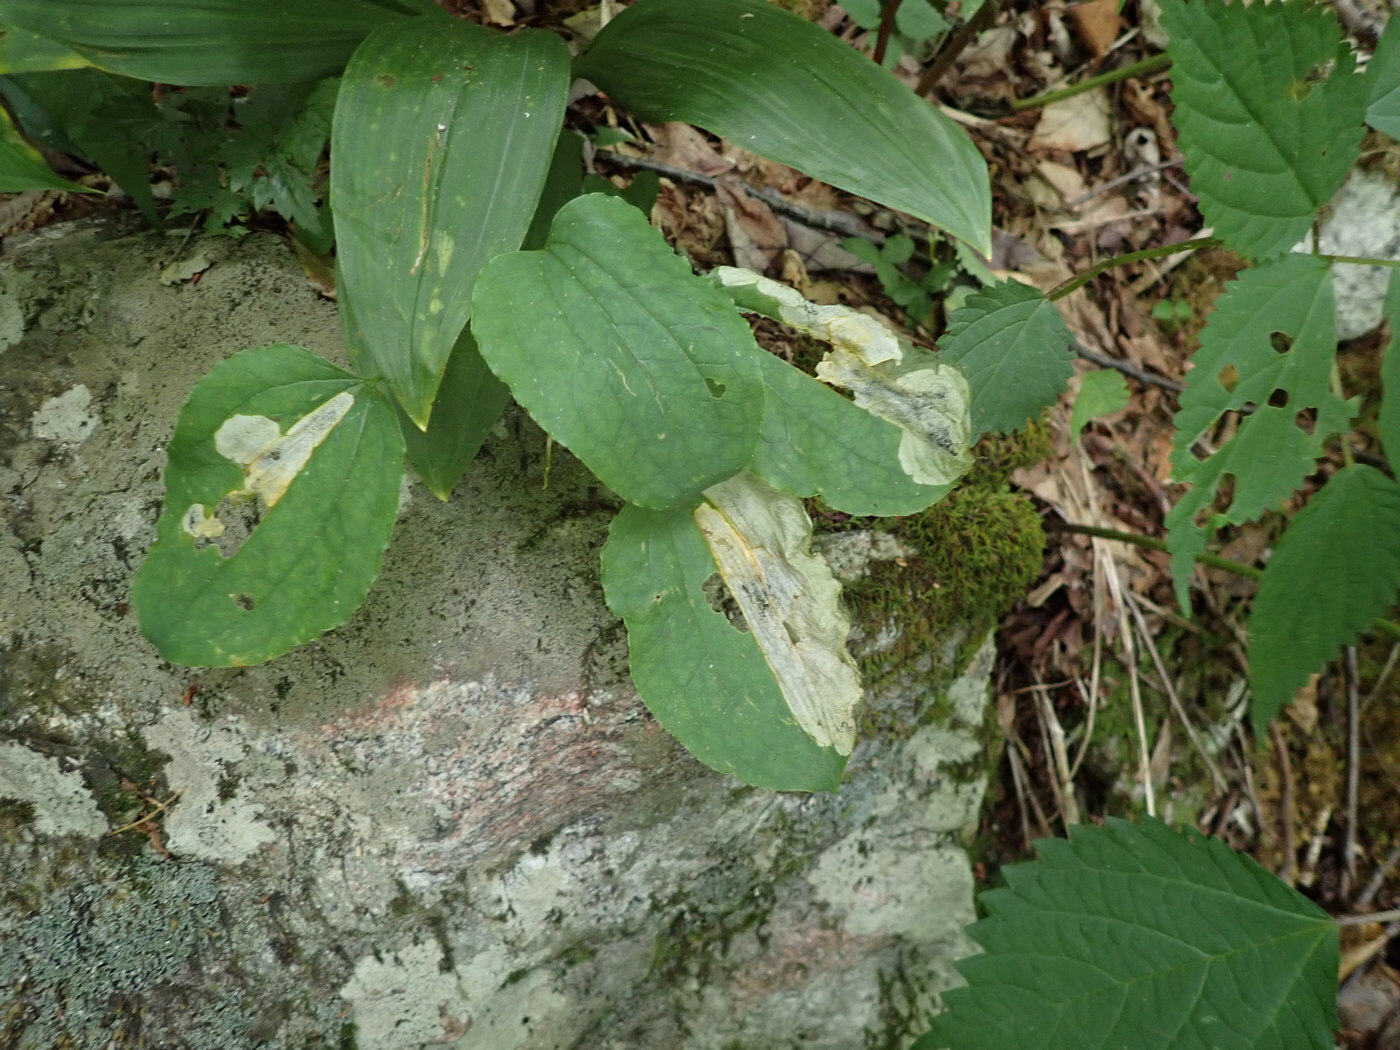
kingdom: Animalia
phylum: Arthropoda
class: Insecta
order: Lepidoptera
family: Lyonetiidae
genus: Leucoptera
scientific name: Leucoptera
